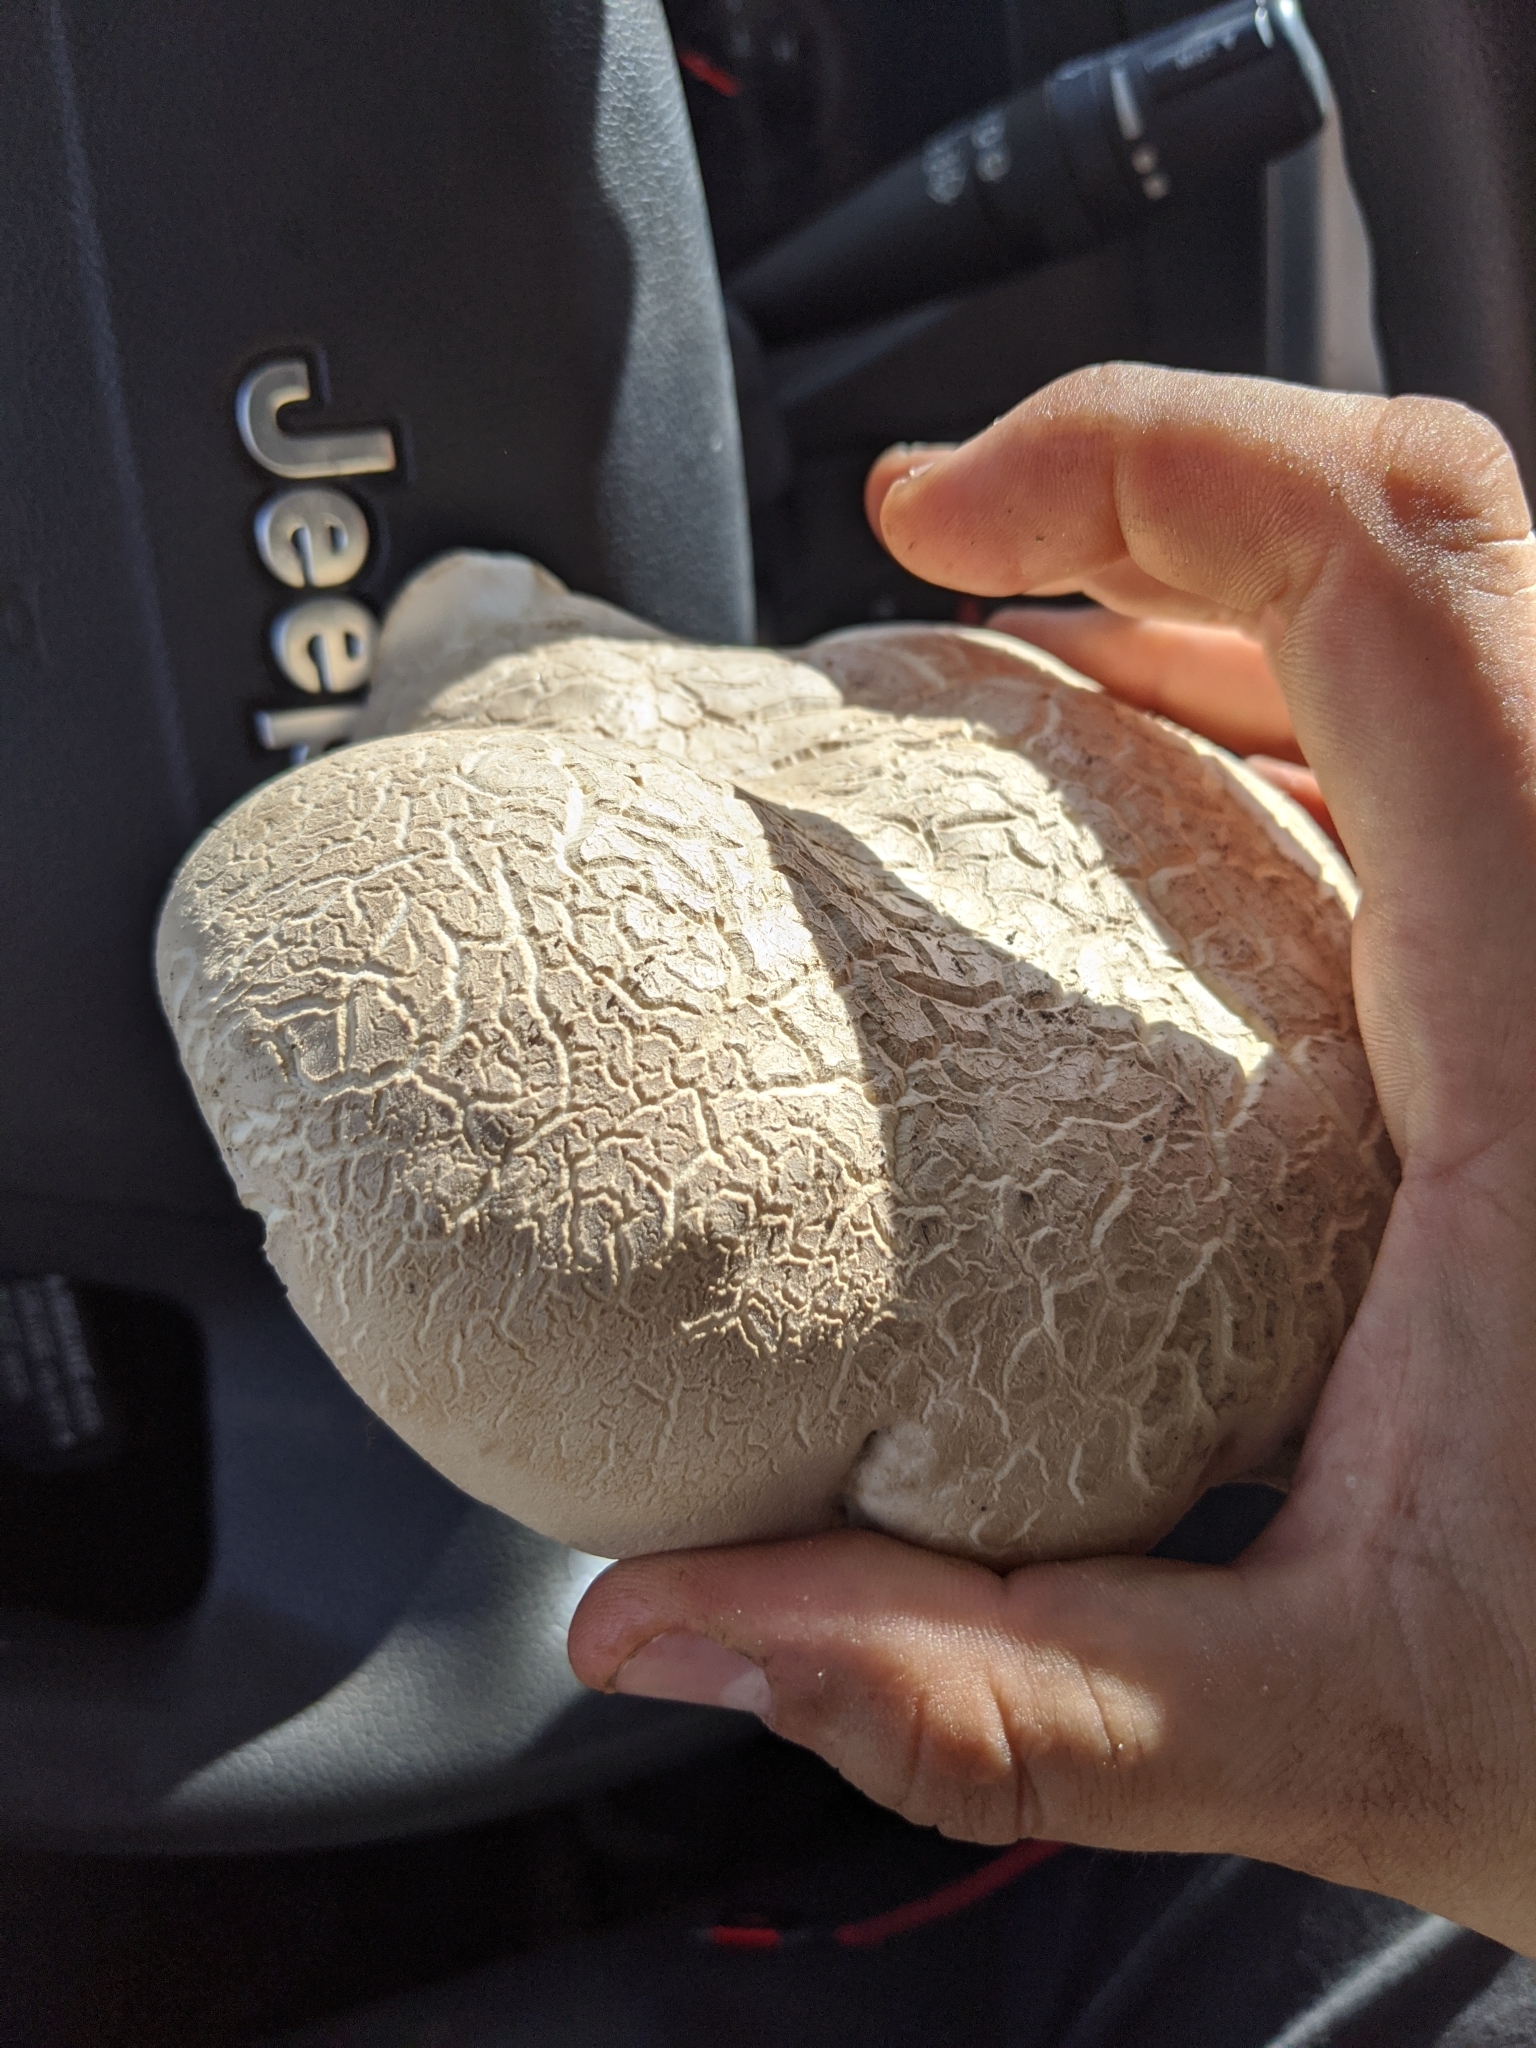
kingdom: Fungi
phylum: Basidiomycota
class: Agaricomycetes
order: Boletales
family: Boletaceae
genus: Boletus
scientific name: Boletus barrowsii
